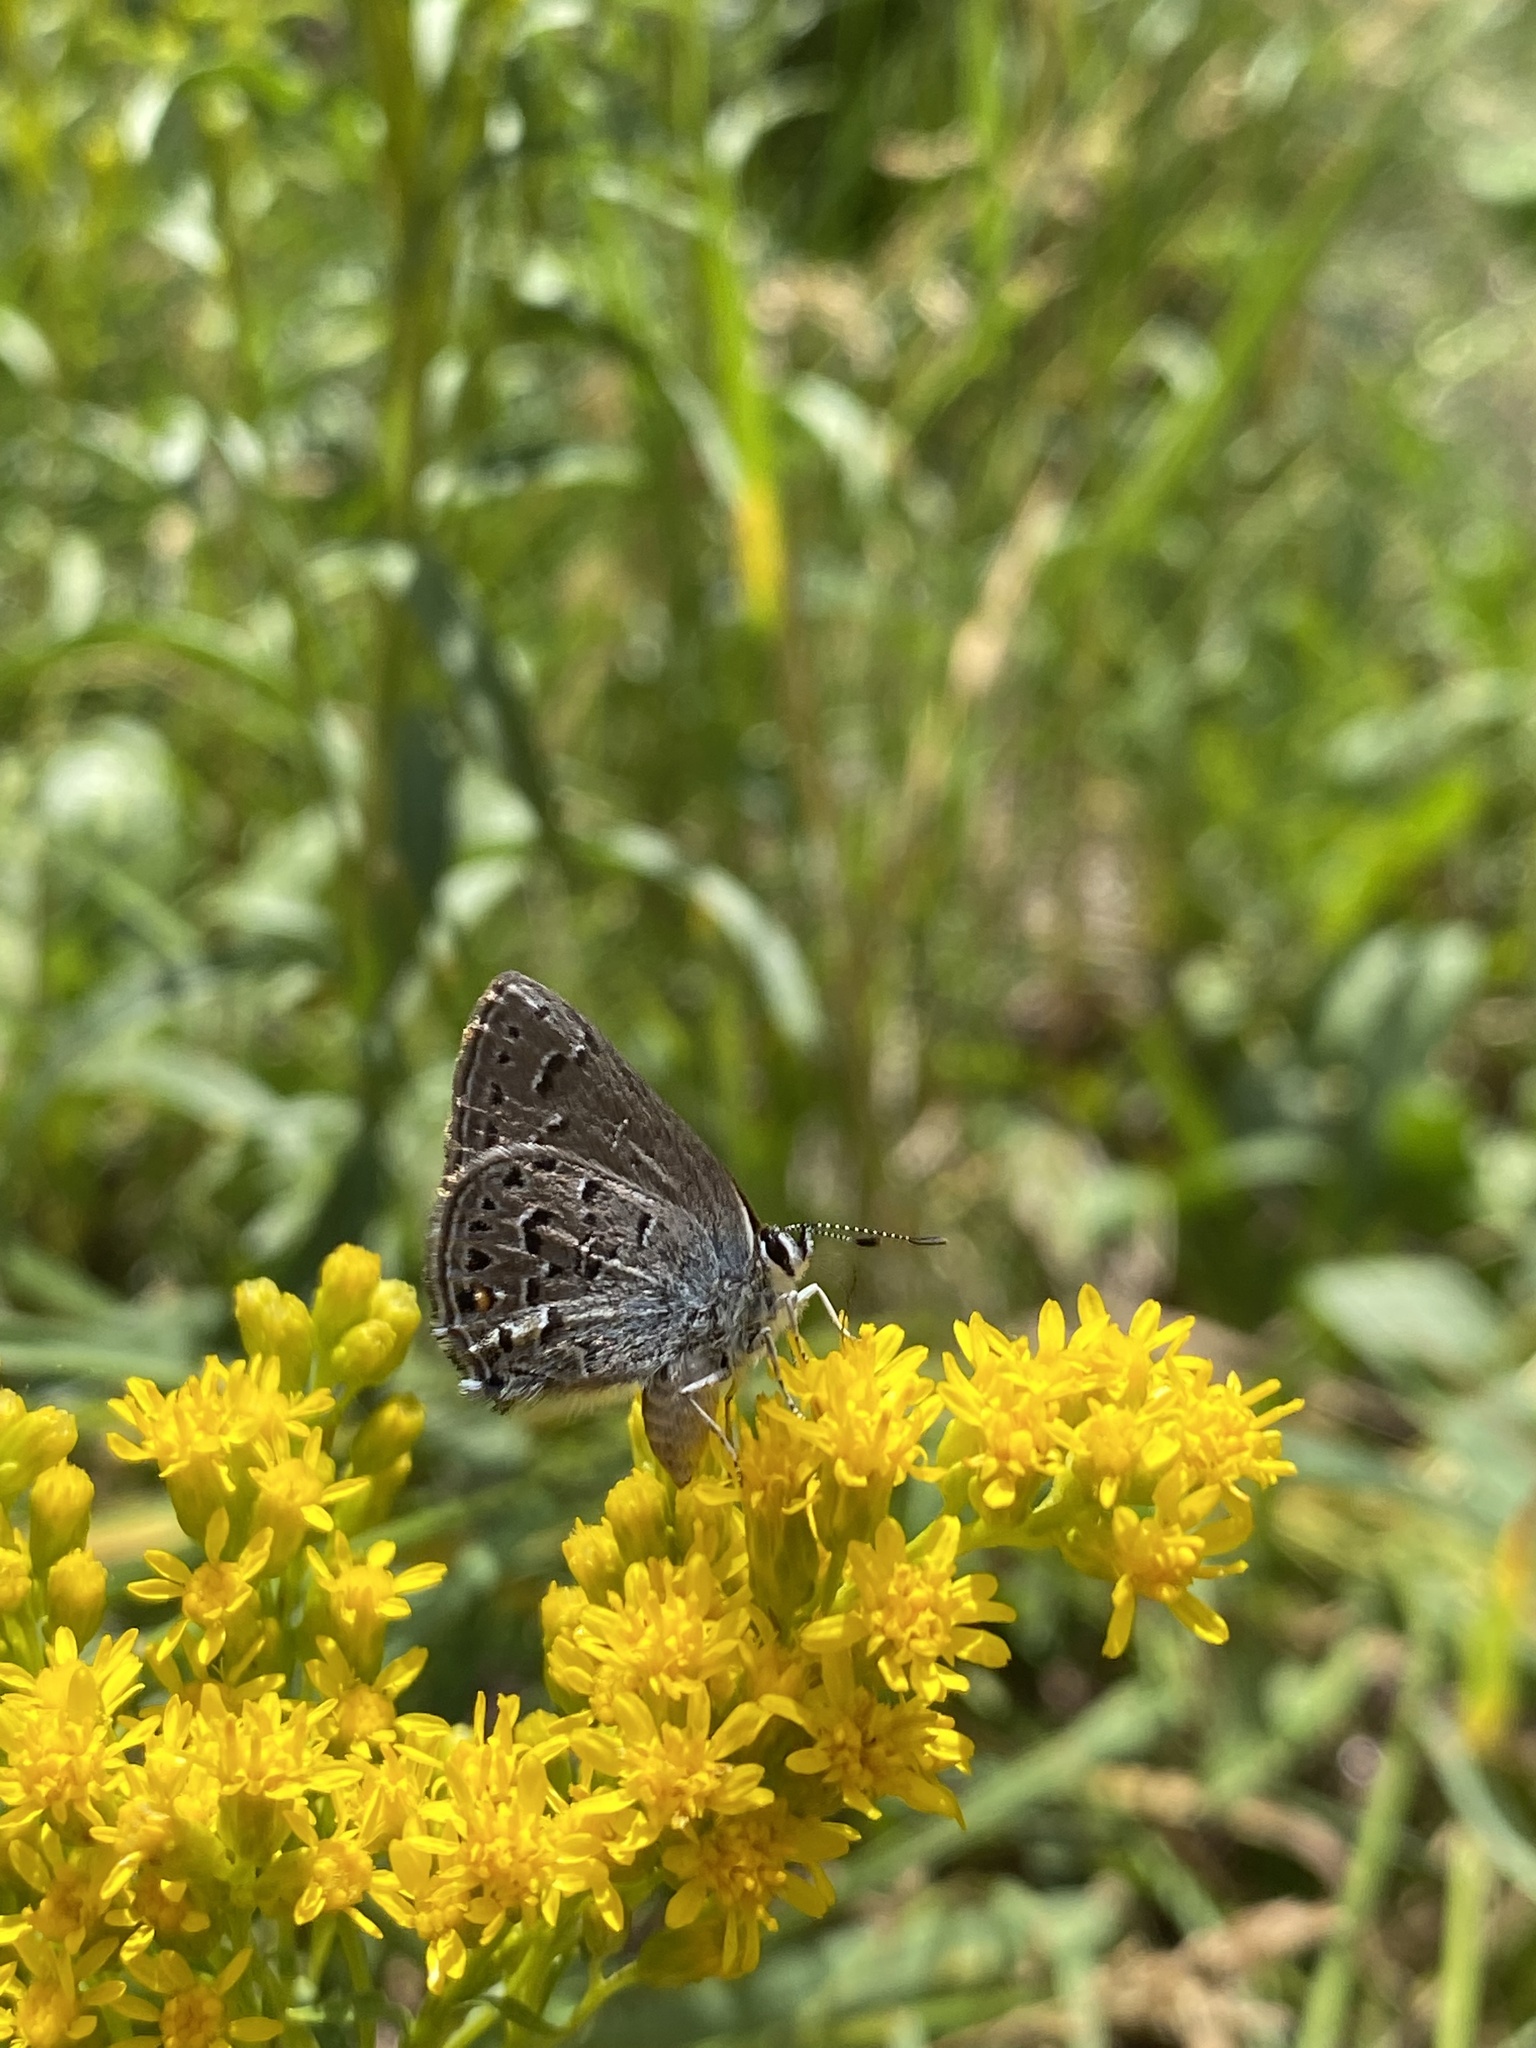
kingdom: Animalia
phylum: Arthropoda
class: Insecta
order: Lepidoptera
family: Lycaenidae
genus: Satyrium
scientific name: Satyrium behrii
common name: Behr's hairstreak
